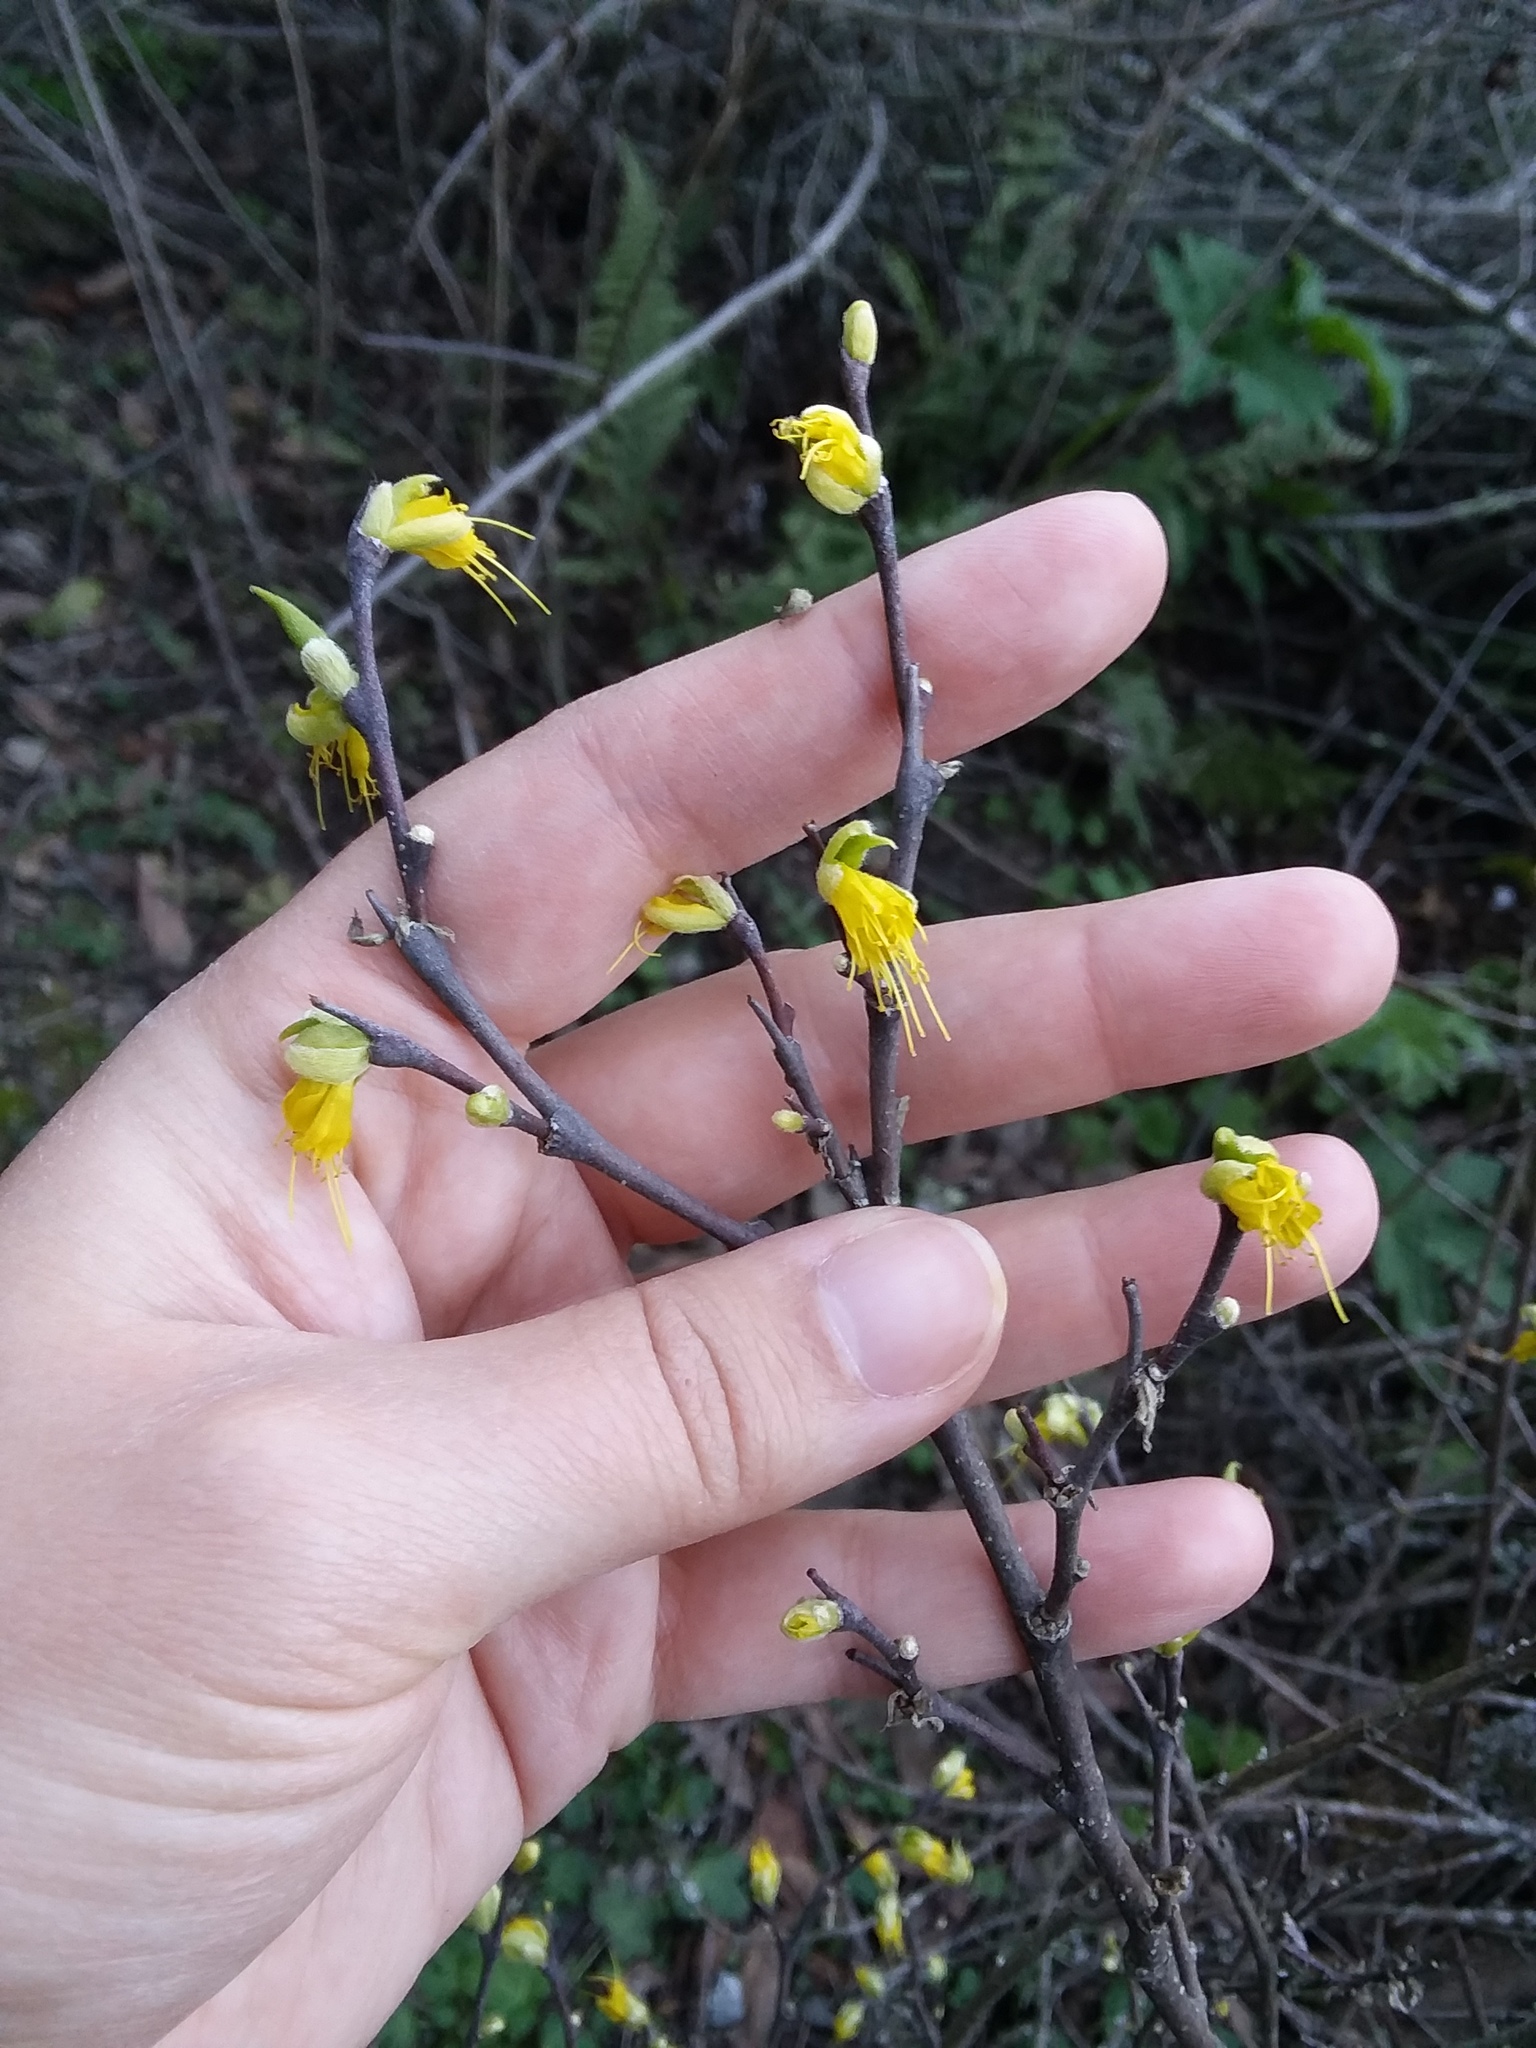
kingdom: Plantae
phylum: Tracheophyta
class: Magnoliopsida
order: Malvales
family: Thymelaeaceae
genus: Dirca
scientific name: Dirca occidentalis
